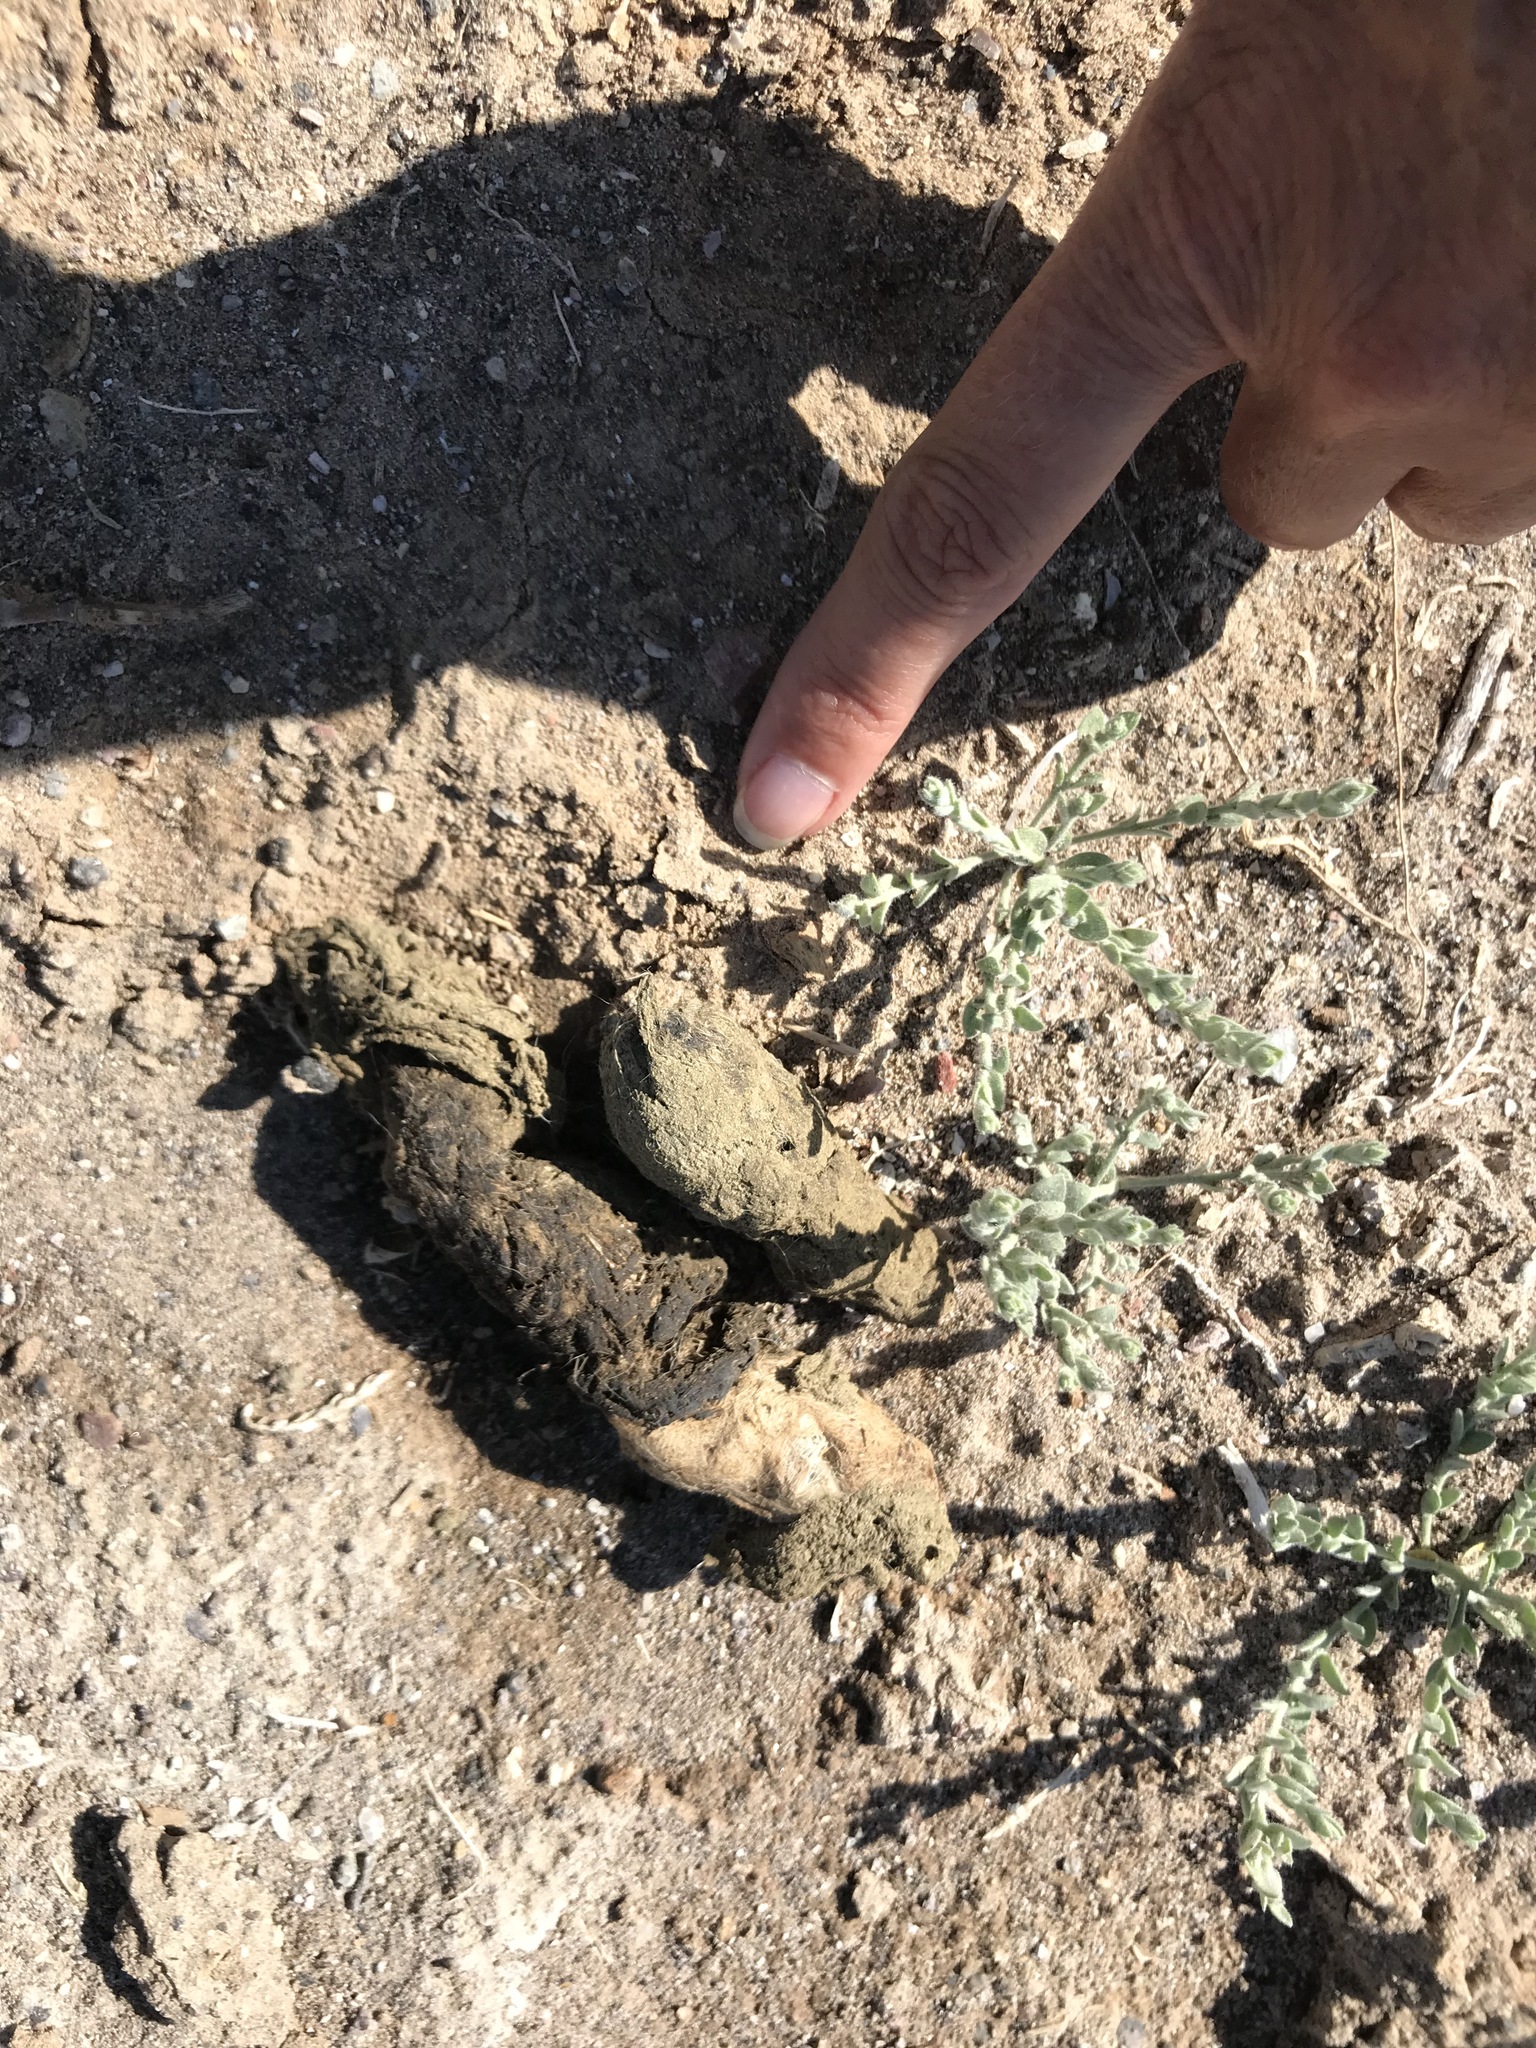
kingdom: Animalia
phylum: Chordata
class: Mammalia
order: Carnivora
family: Canidae
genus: Canis
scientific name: Canis latrans
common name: Coyote
